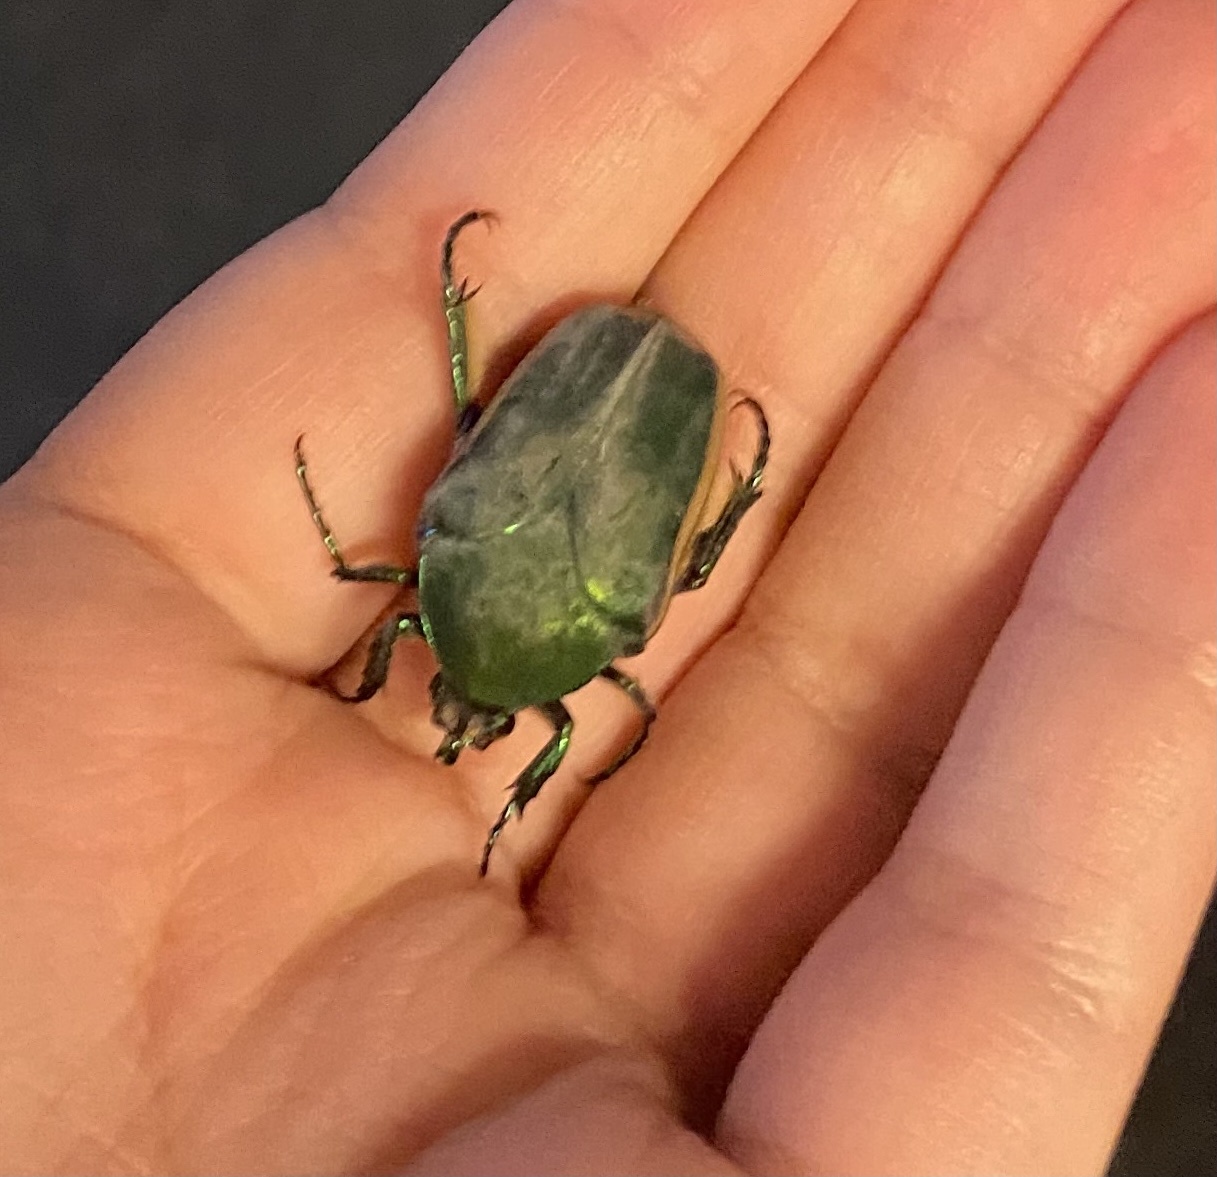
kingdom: Animalia
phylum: Arthropoda
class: Insecta
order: Coleoptera
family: Scarabaeidae
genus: Cotinis
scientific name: Cotinis mutabilis
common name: Figeater beetle
